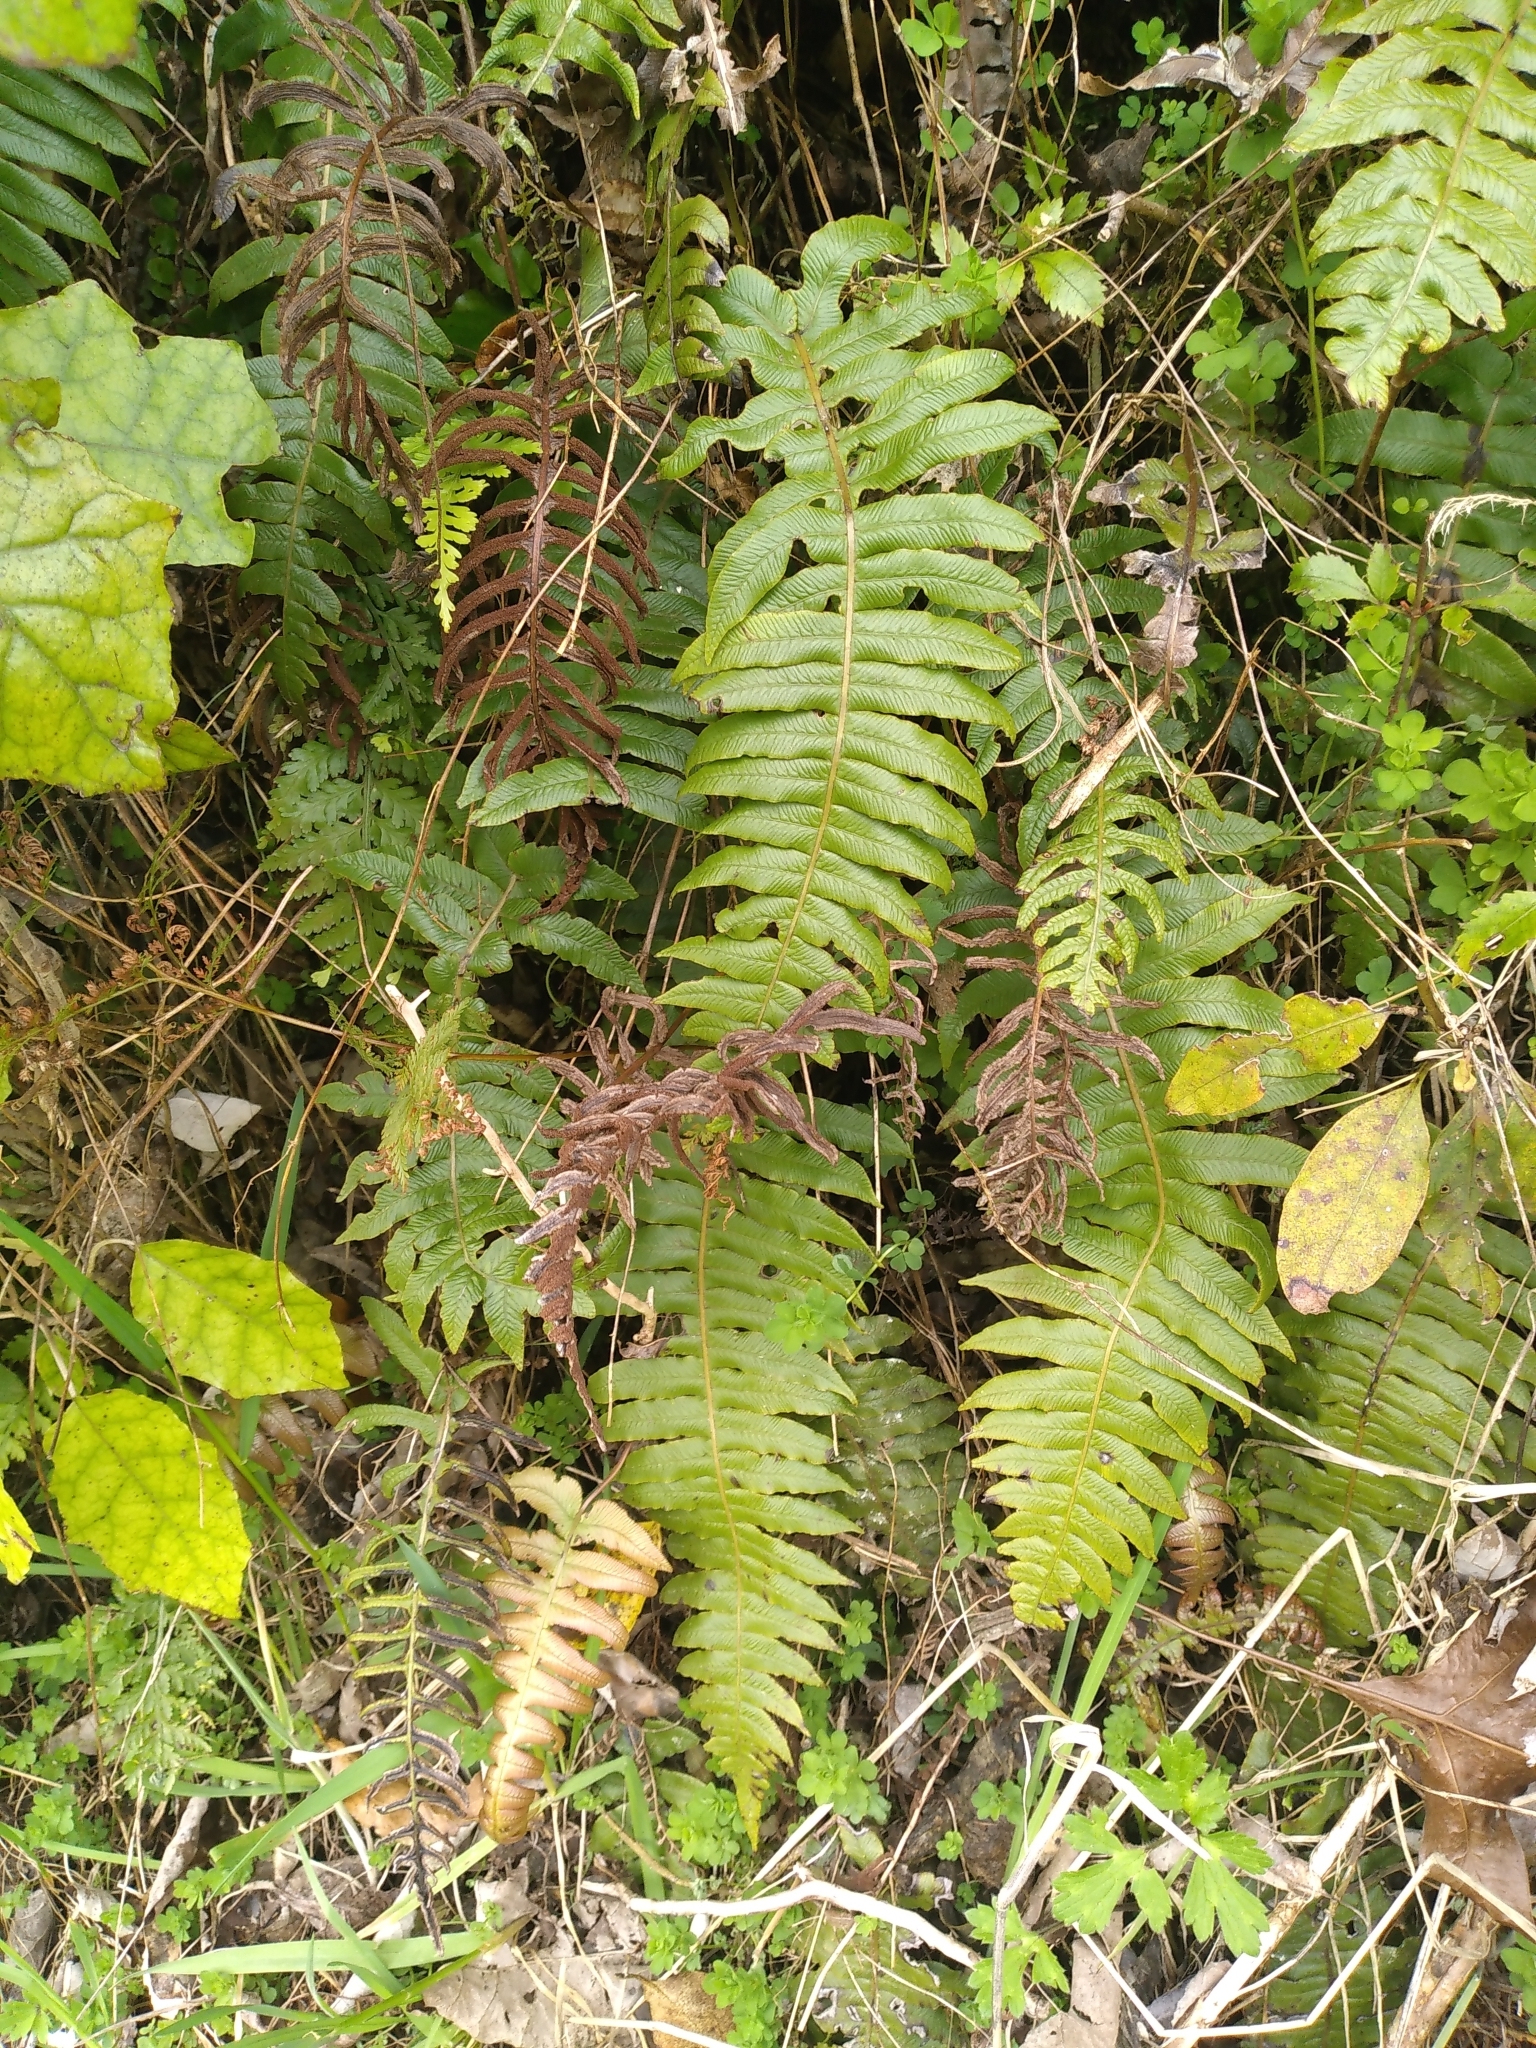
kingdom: Plantae
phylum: Tracheophyta
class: Polypodiopsida
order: Polypodiales
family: Blechnaceae
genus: Cranfillia
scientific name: Cranfillia deltoides
